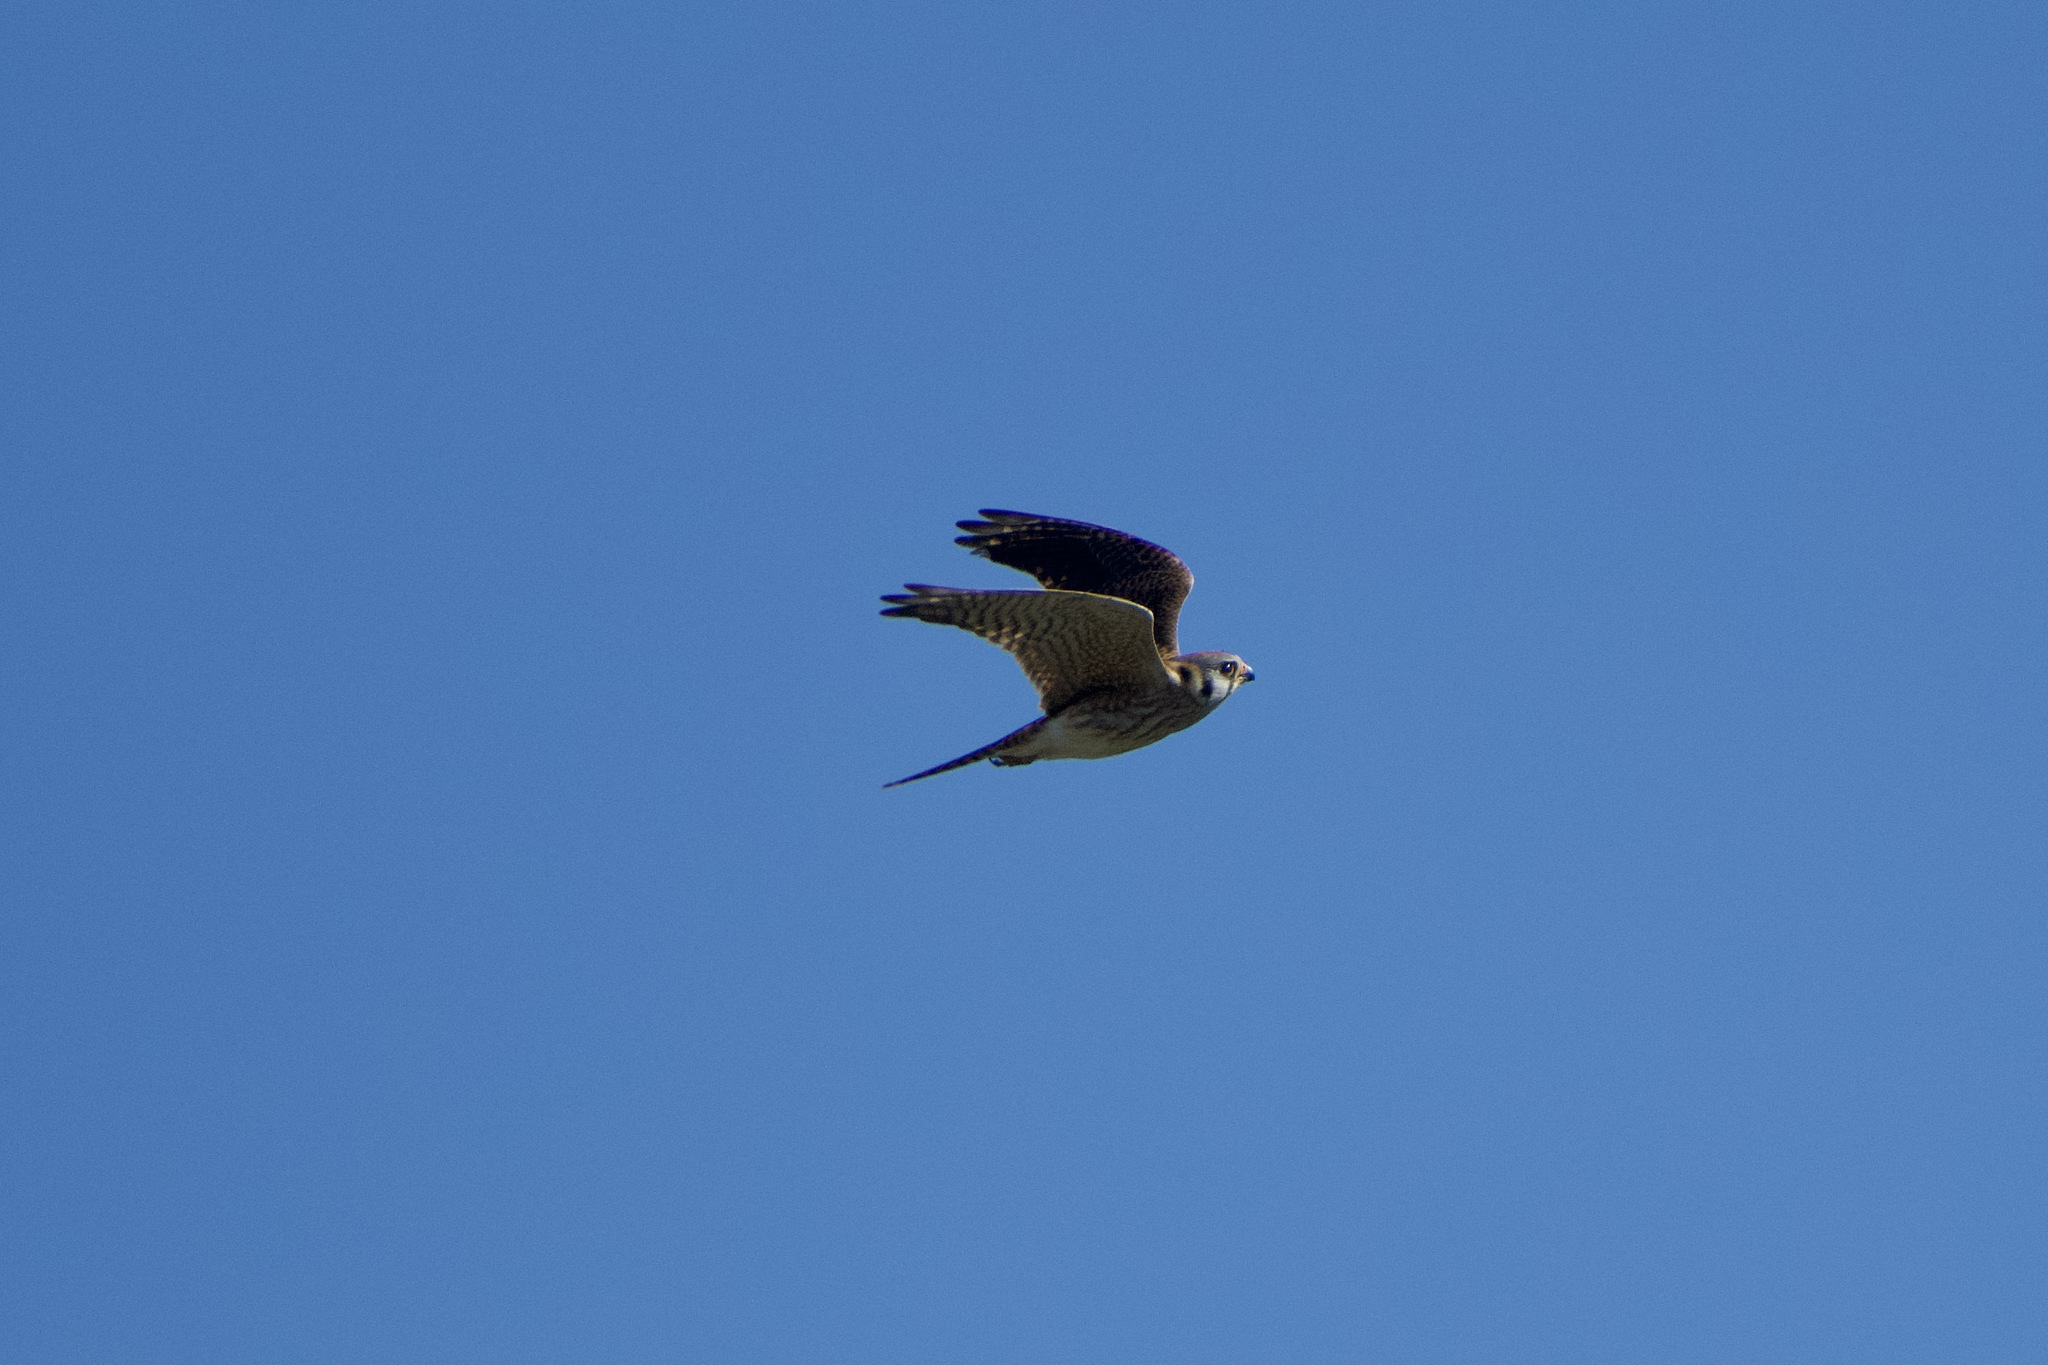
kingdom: Animalia
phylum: Chordata
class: Aves
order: Falconiformes
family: Falconidae
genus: Falco
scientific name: Falco sparverius
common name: American kestrel
